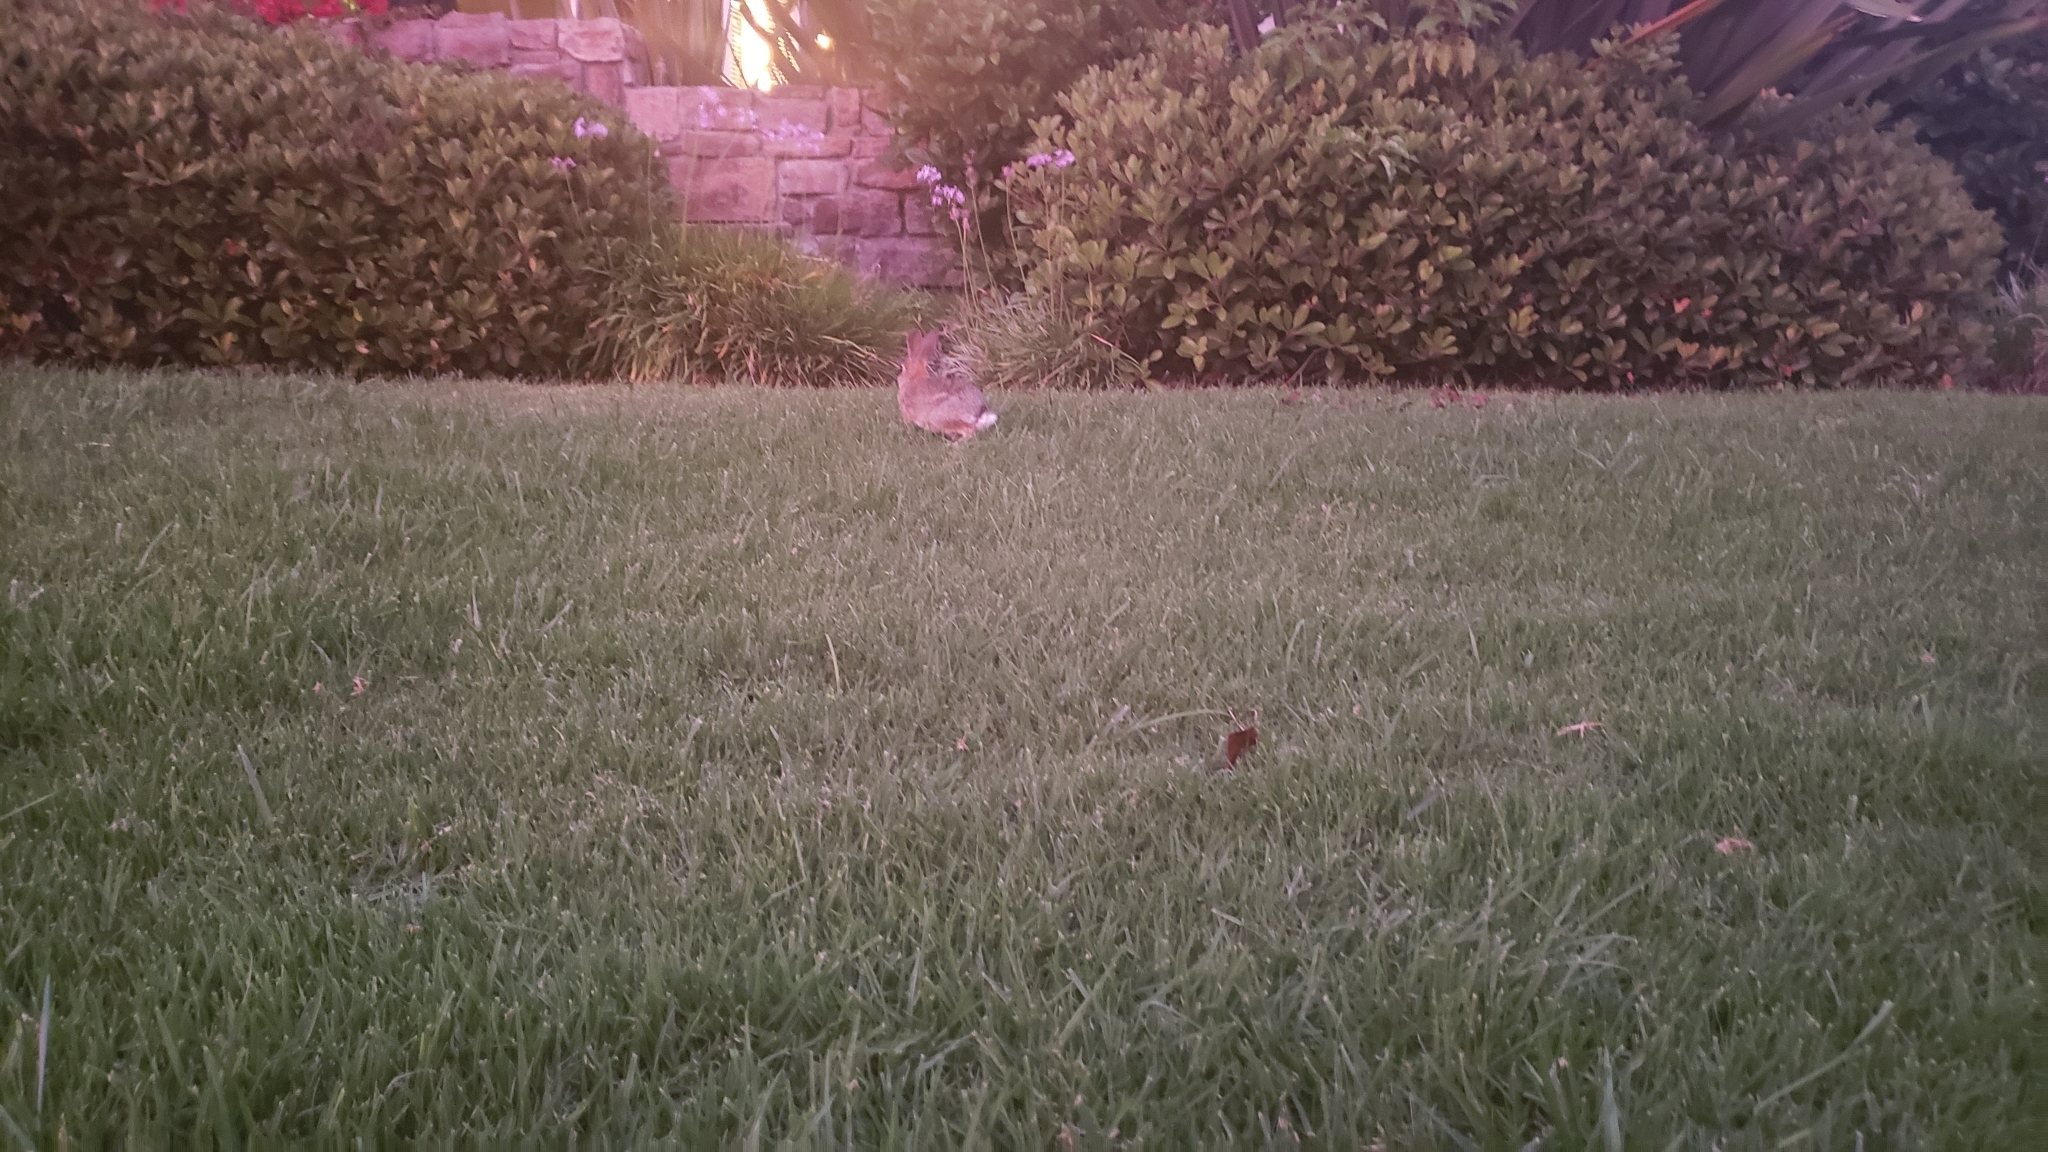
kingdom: Animalia
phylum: Chordata
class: Mammalia
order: Lagomorpha
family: Leporidae
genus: Sylvilagus
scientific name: Sylvilagus audubonii
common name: Desert cottontail
